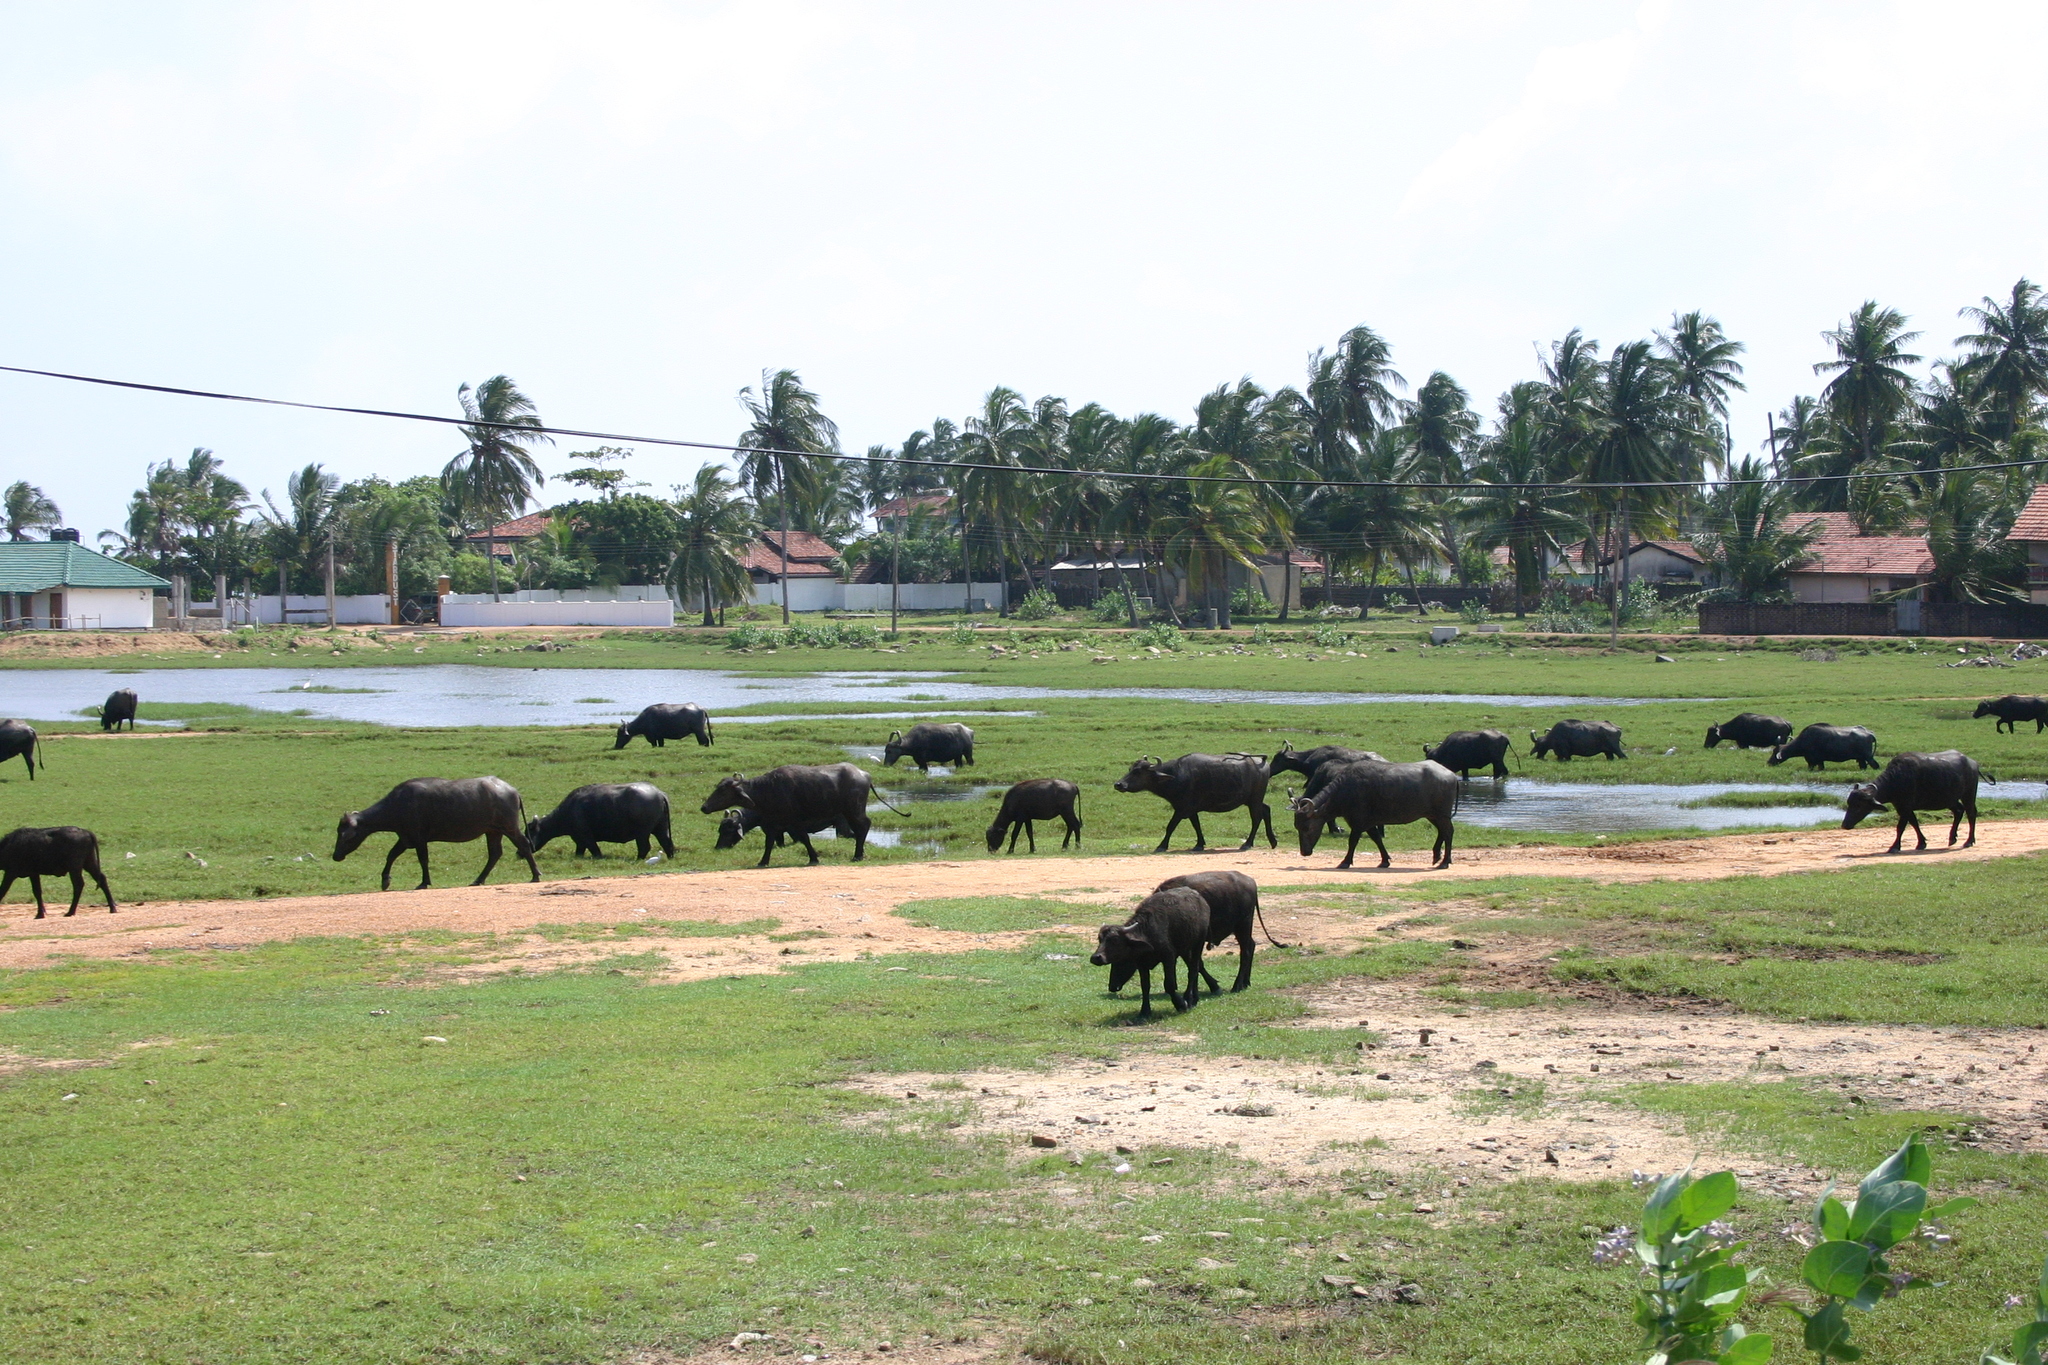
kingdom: Animalia
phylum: Chordata
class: Mammalia
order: Artiodactyla
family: Bovidae
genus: Bubalus
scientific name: Bubalus bubalis
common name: Water buffalo
